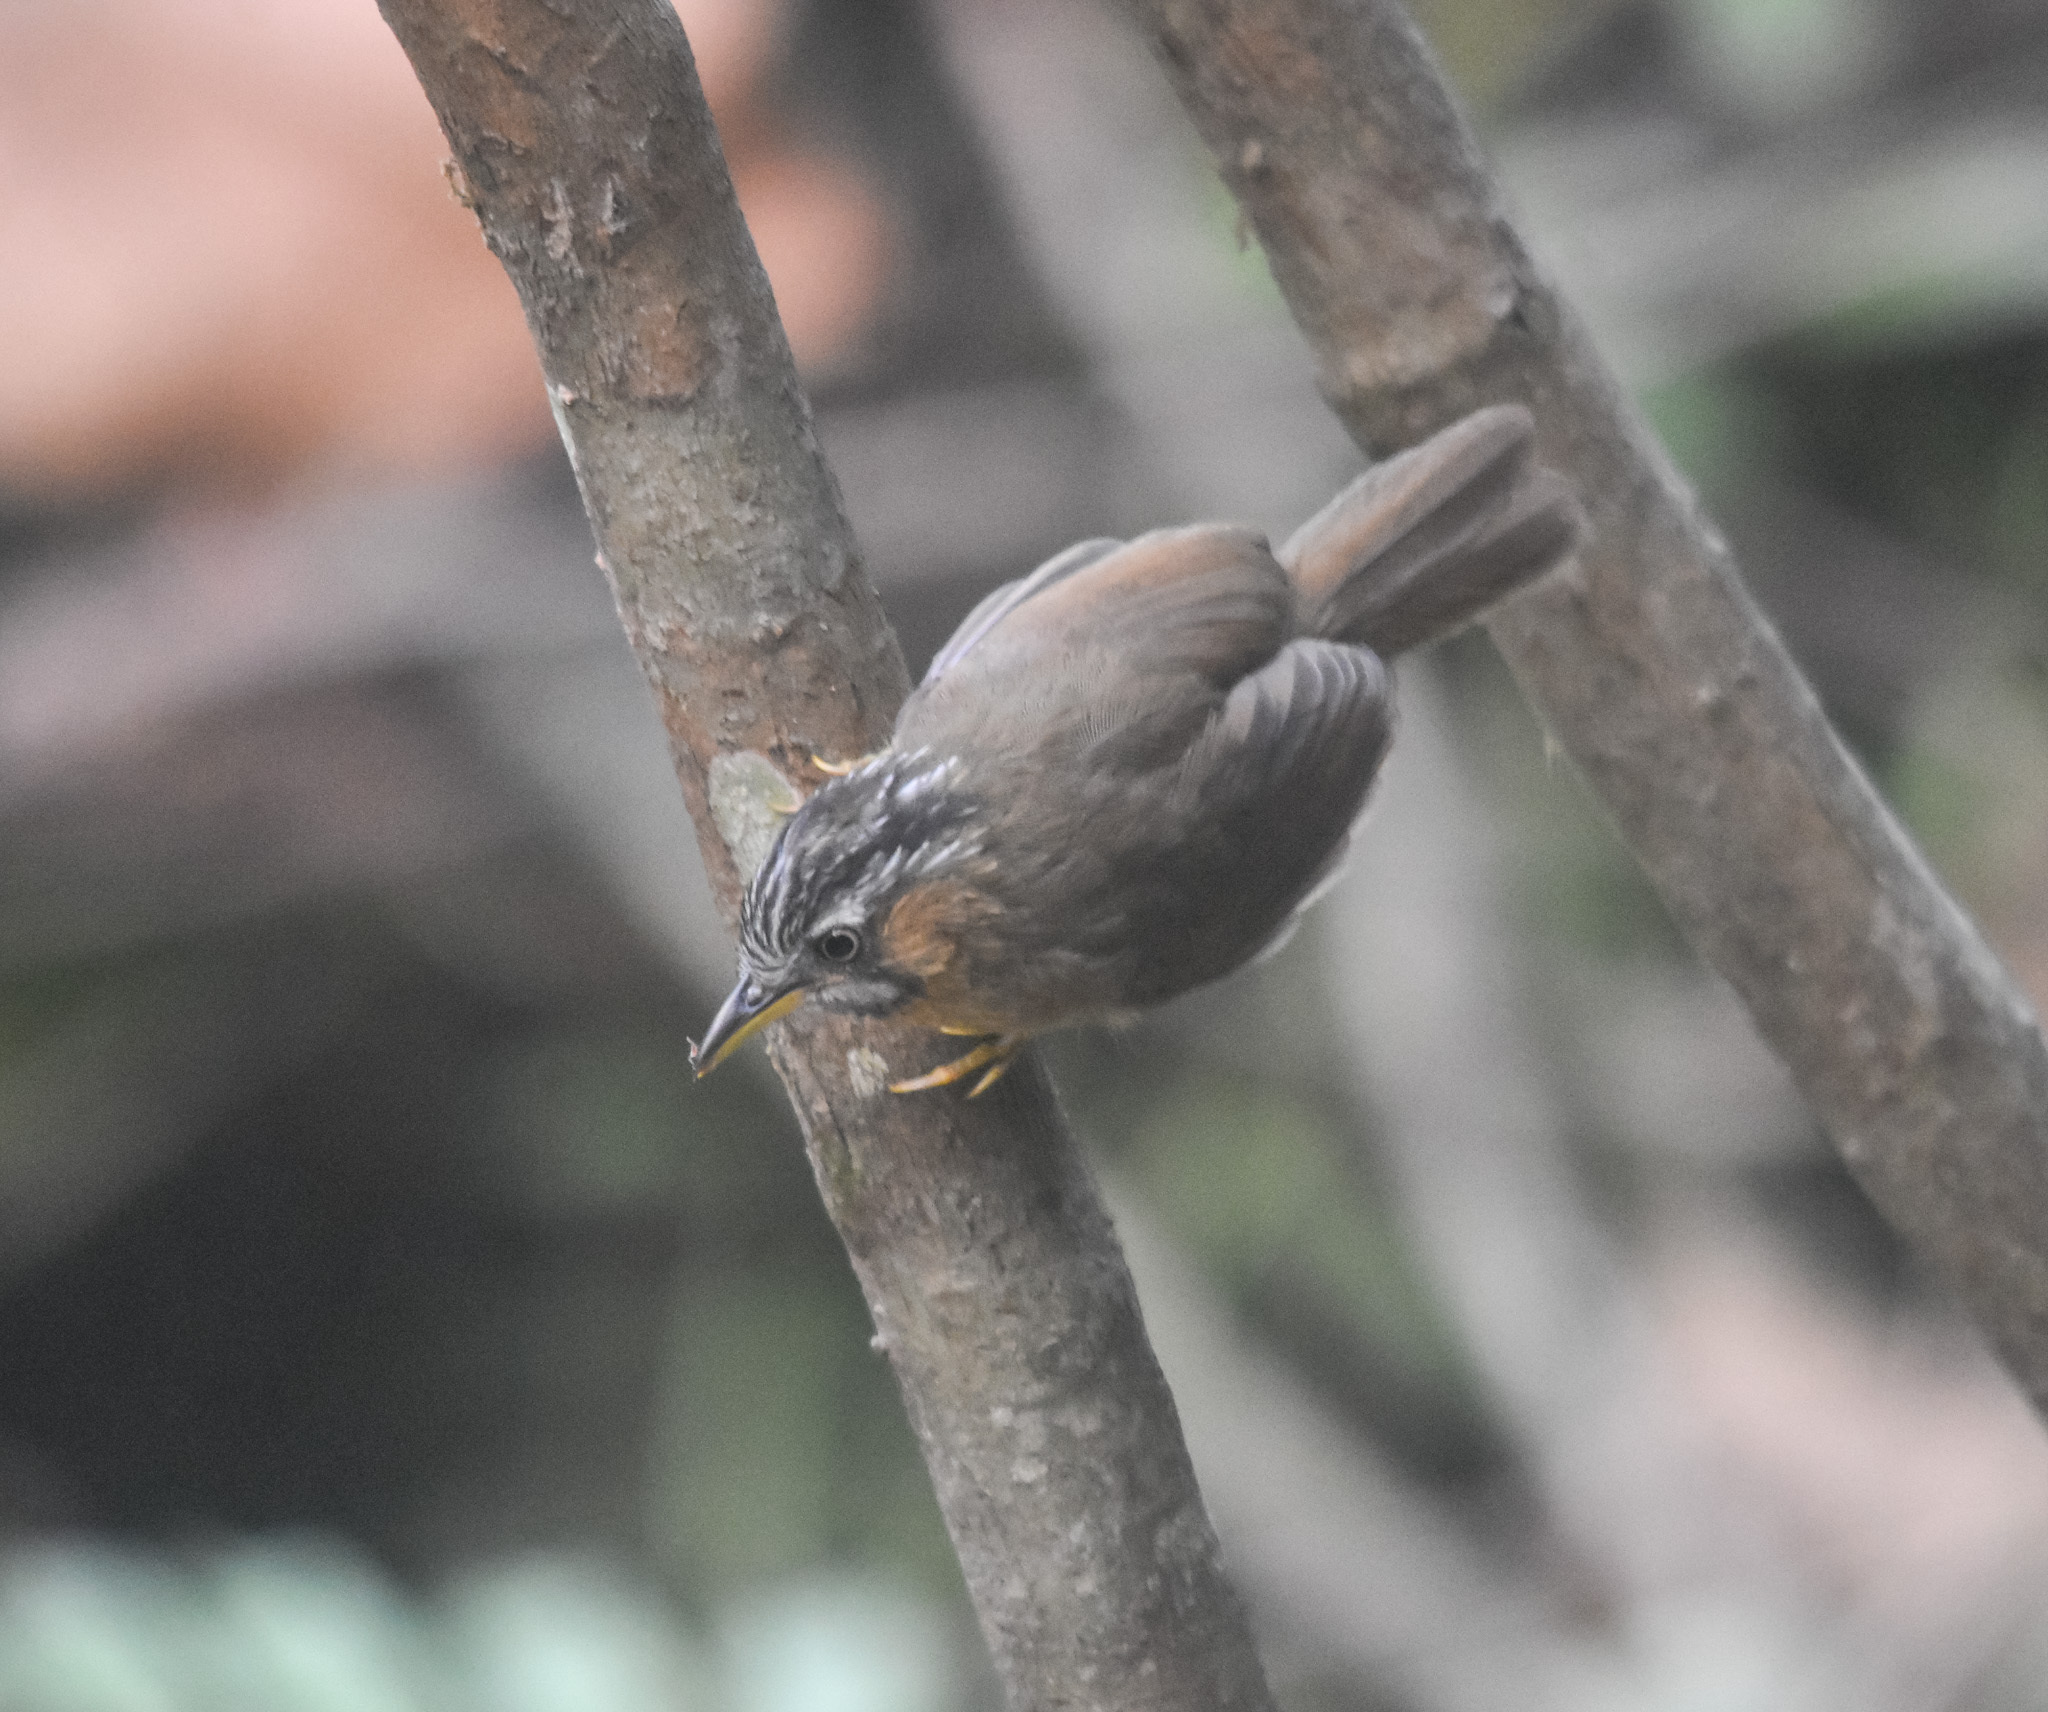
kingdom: Animalia
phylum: Chordata
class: Aves
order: Passeriformes
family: Timaliidae
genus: Stachyris
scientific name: Stachyris nigriceps
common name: Grey-throated babbler
